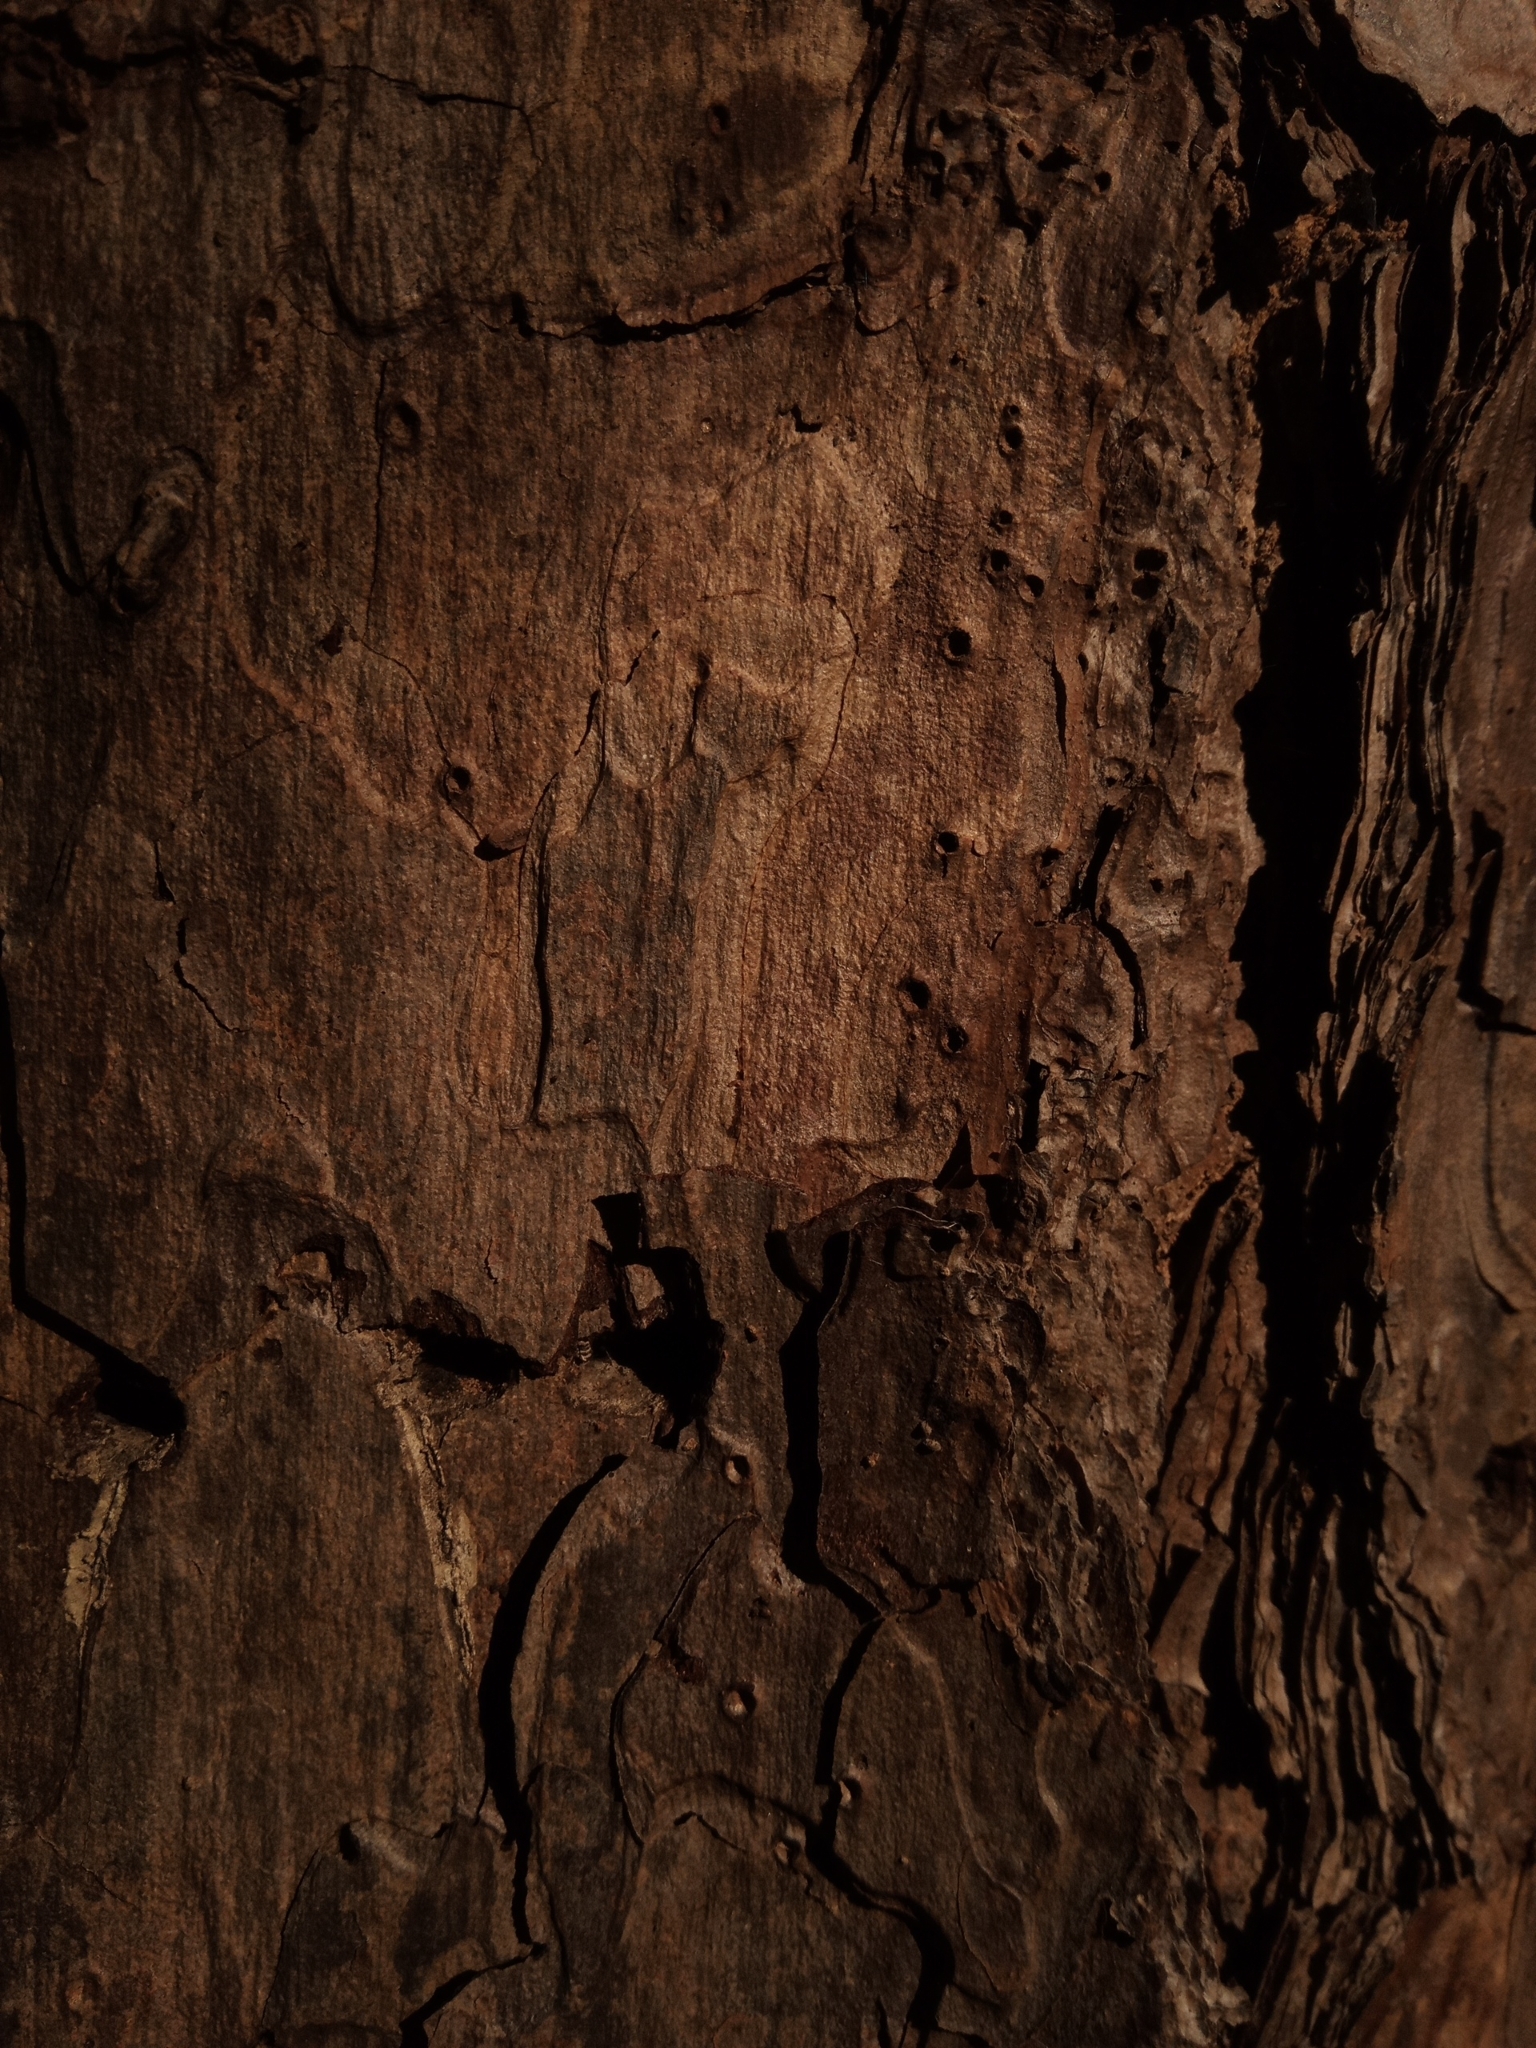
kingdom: Plantae
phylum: Tracheophyta
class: Pinopsida
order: Pinales
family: Pinaceae
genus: Pinus
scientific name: Pinus echinata
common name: Shortleaf pine
